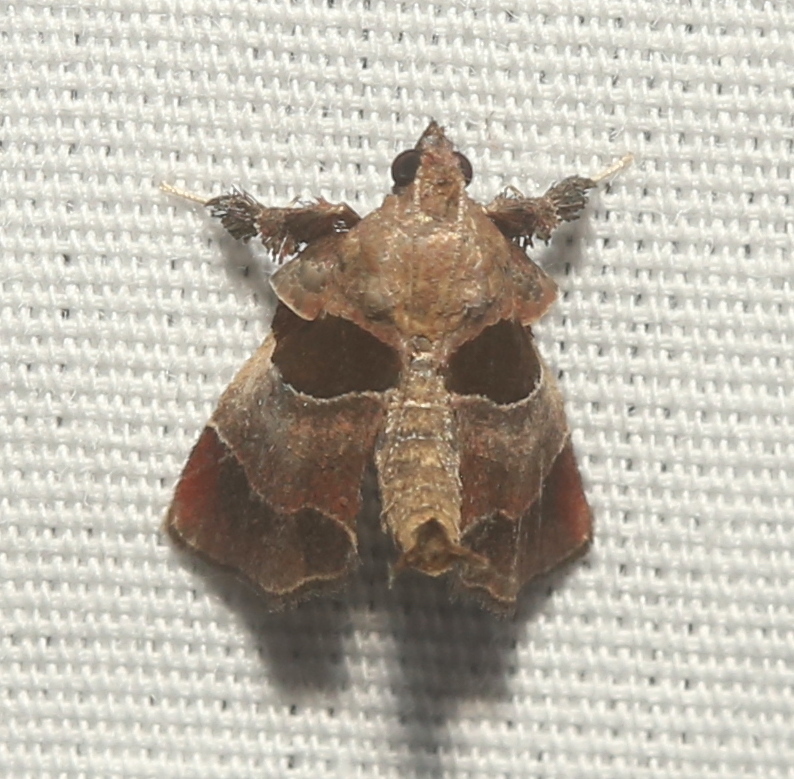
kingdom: Animalia
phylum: Arthropoda
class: Insecta
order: Lepidoptera
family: Pyralidae
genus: Tosale
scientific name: Tosale oviplagalis
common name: Dimorphic tosale moth
